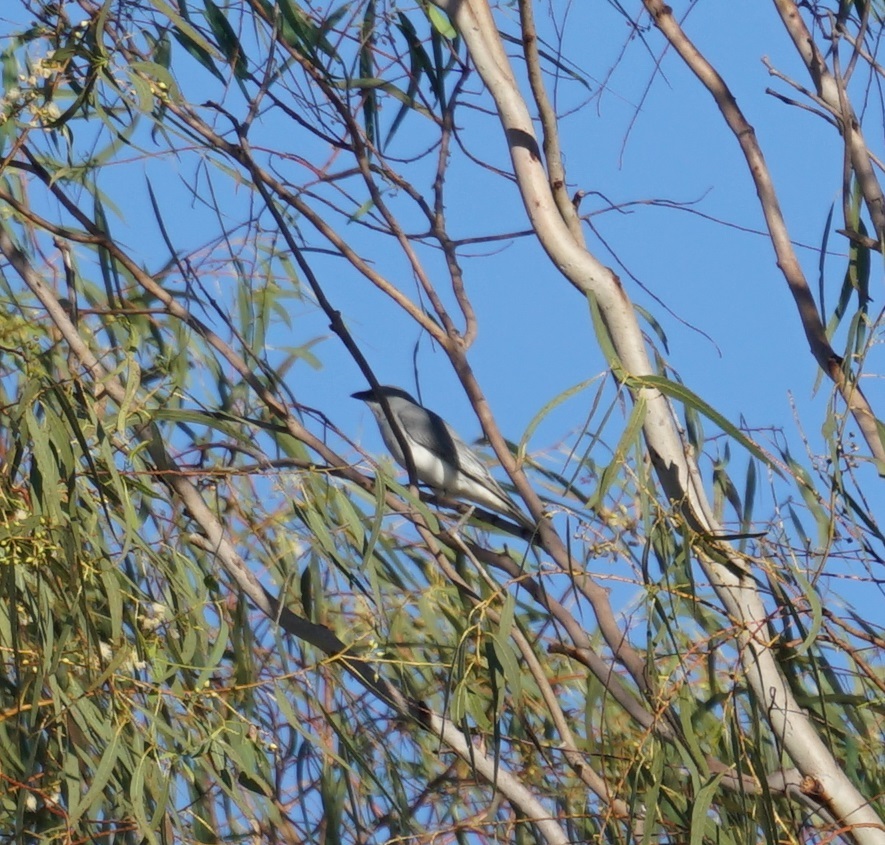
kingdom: Animalia
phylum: Chordata
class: Aves
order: Passeriformes
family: Campephagidae
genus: Coracina
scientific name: Coracina papuensis
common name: White-bellied cuckooshrike
